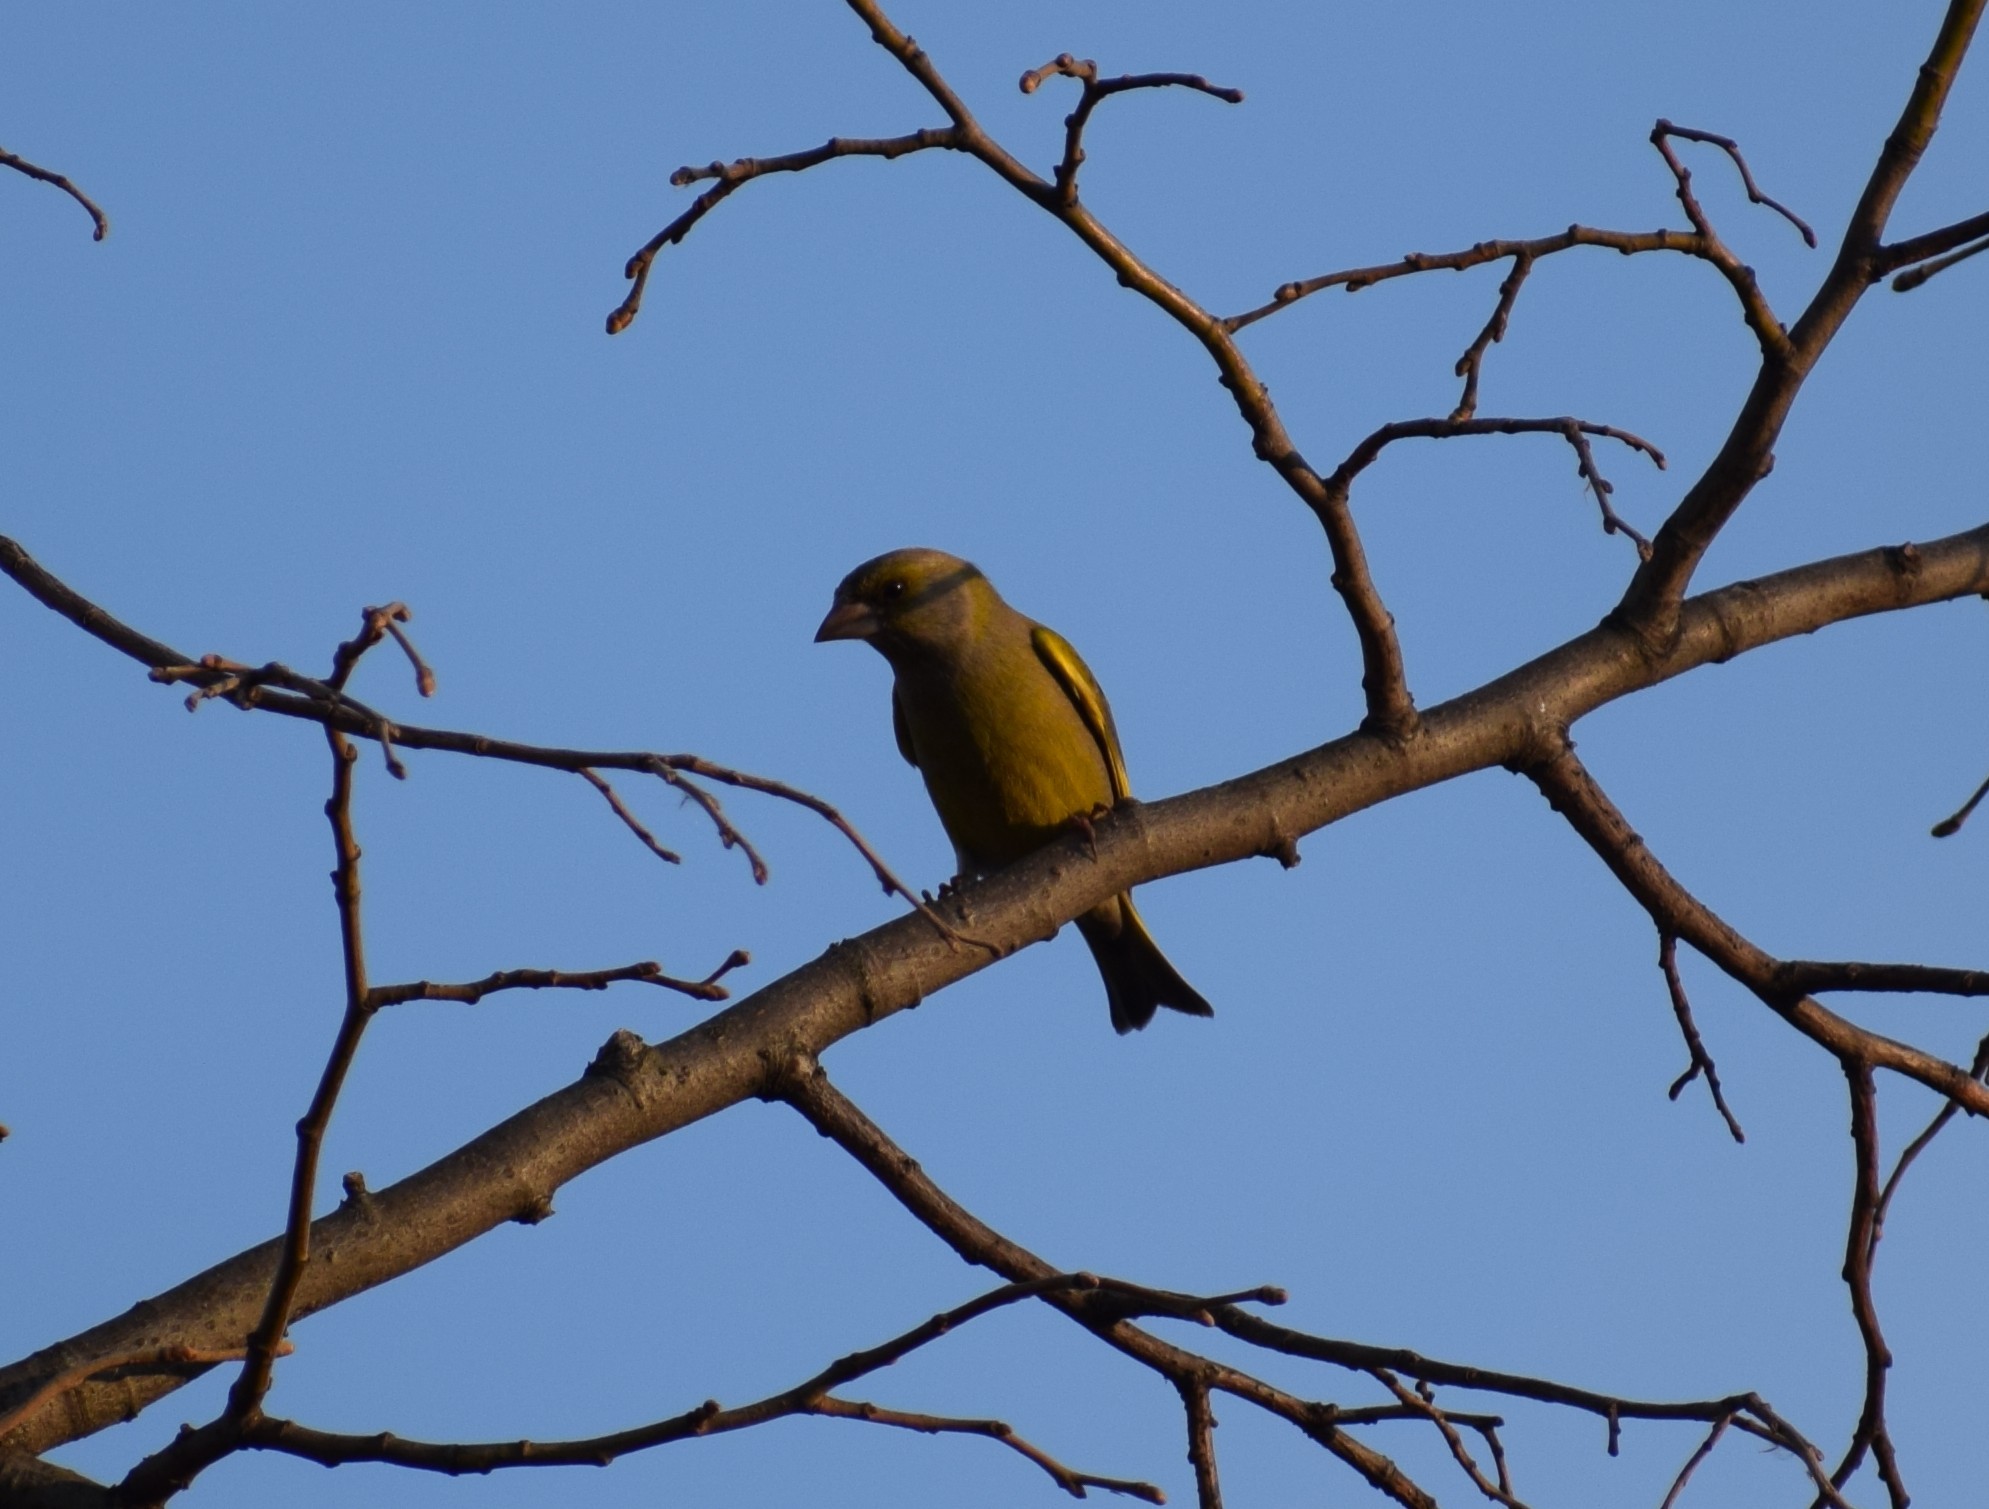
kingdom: Plantae
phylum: Tracheophyta
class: Liliopsida
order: Poales
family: Poaceae
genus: Chloris
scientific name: Chloris chloris
